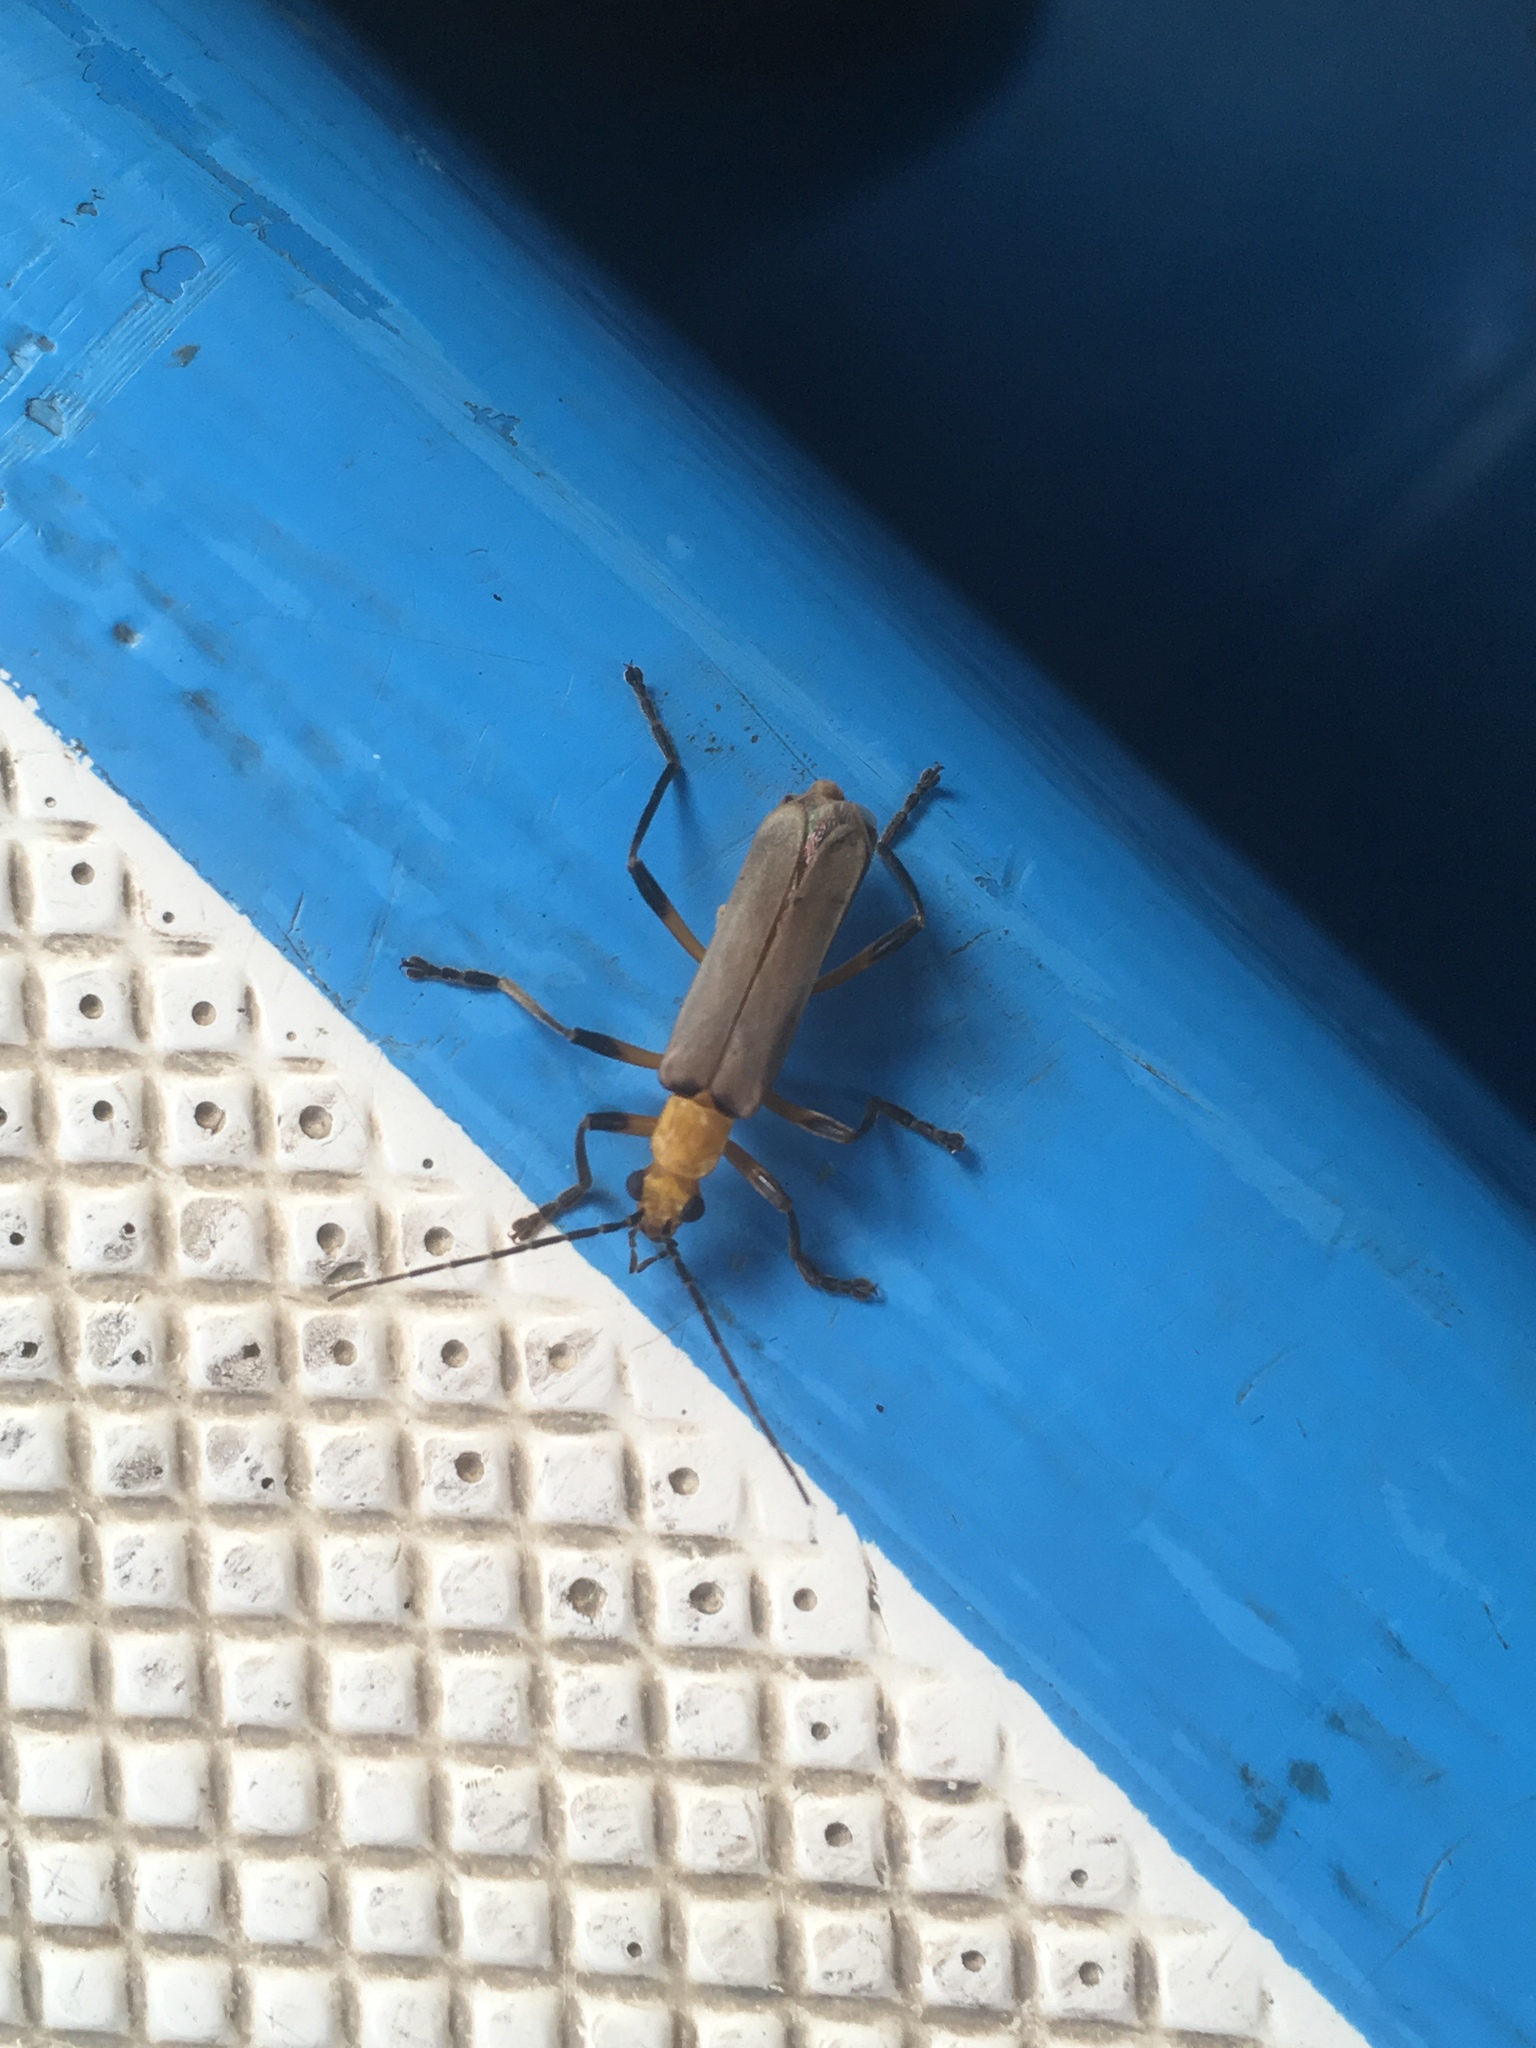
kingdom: Animalia
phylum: Arthropoda
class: Insecta
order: Coleoptera
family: Cantharidae
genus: Chauliognathus
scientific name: Chauliognathus
